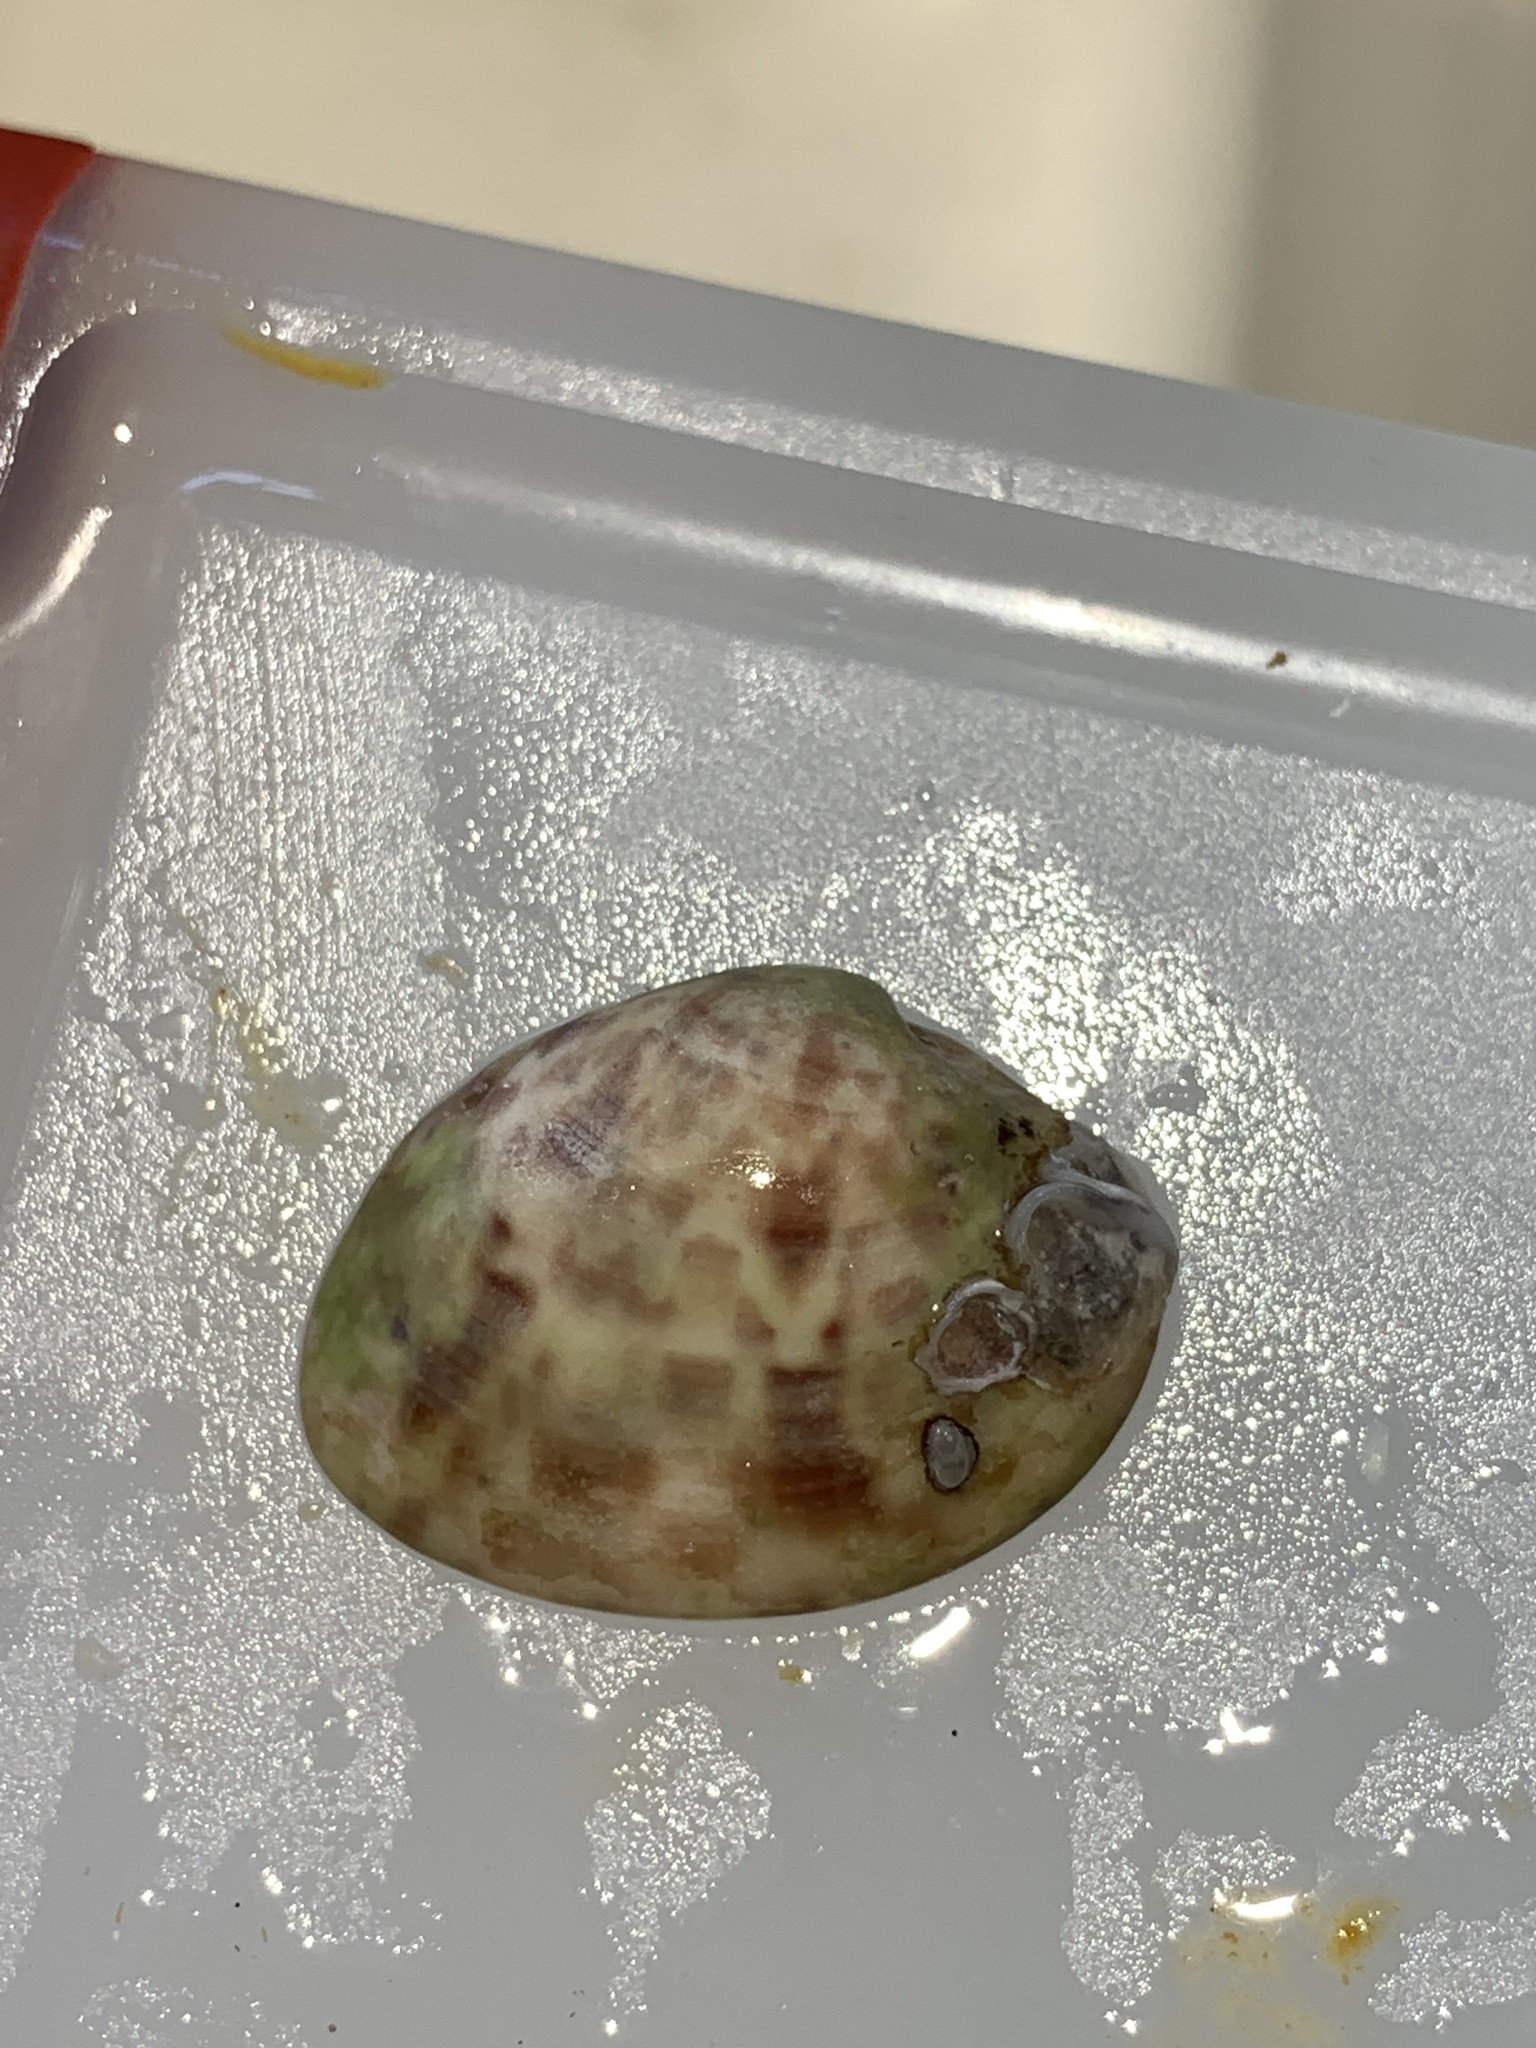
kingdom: Animalia
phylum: Mollusca
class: Bivalvia
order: Venerida
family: Veneridae
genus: Megapitaria
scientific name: Megapitaria maculata
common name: Calico clam
